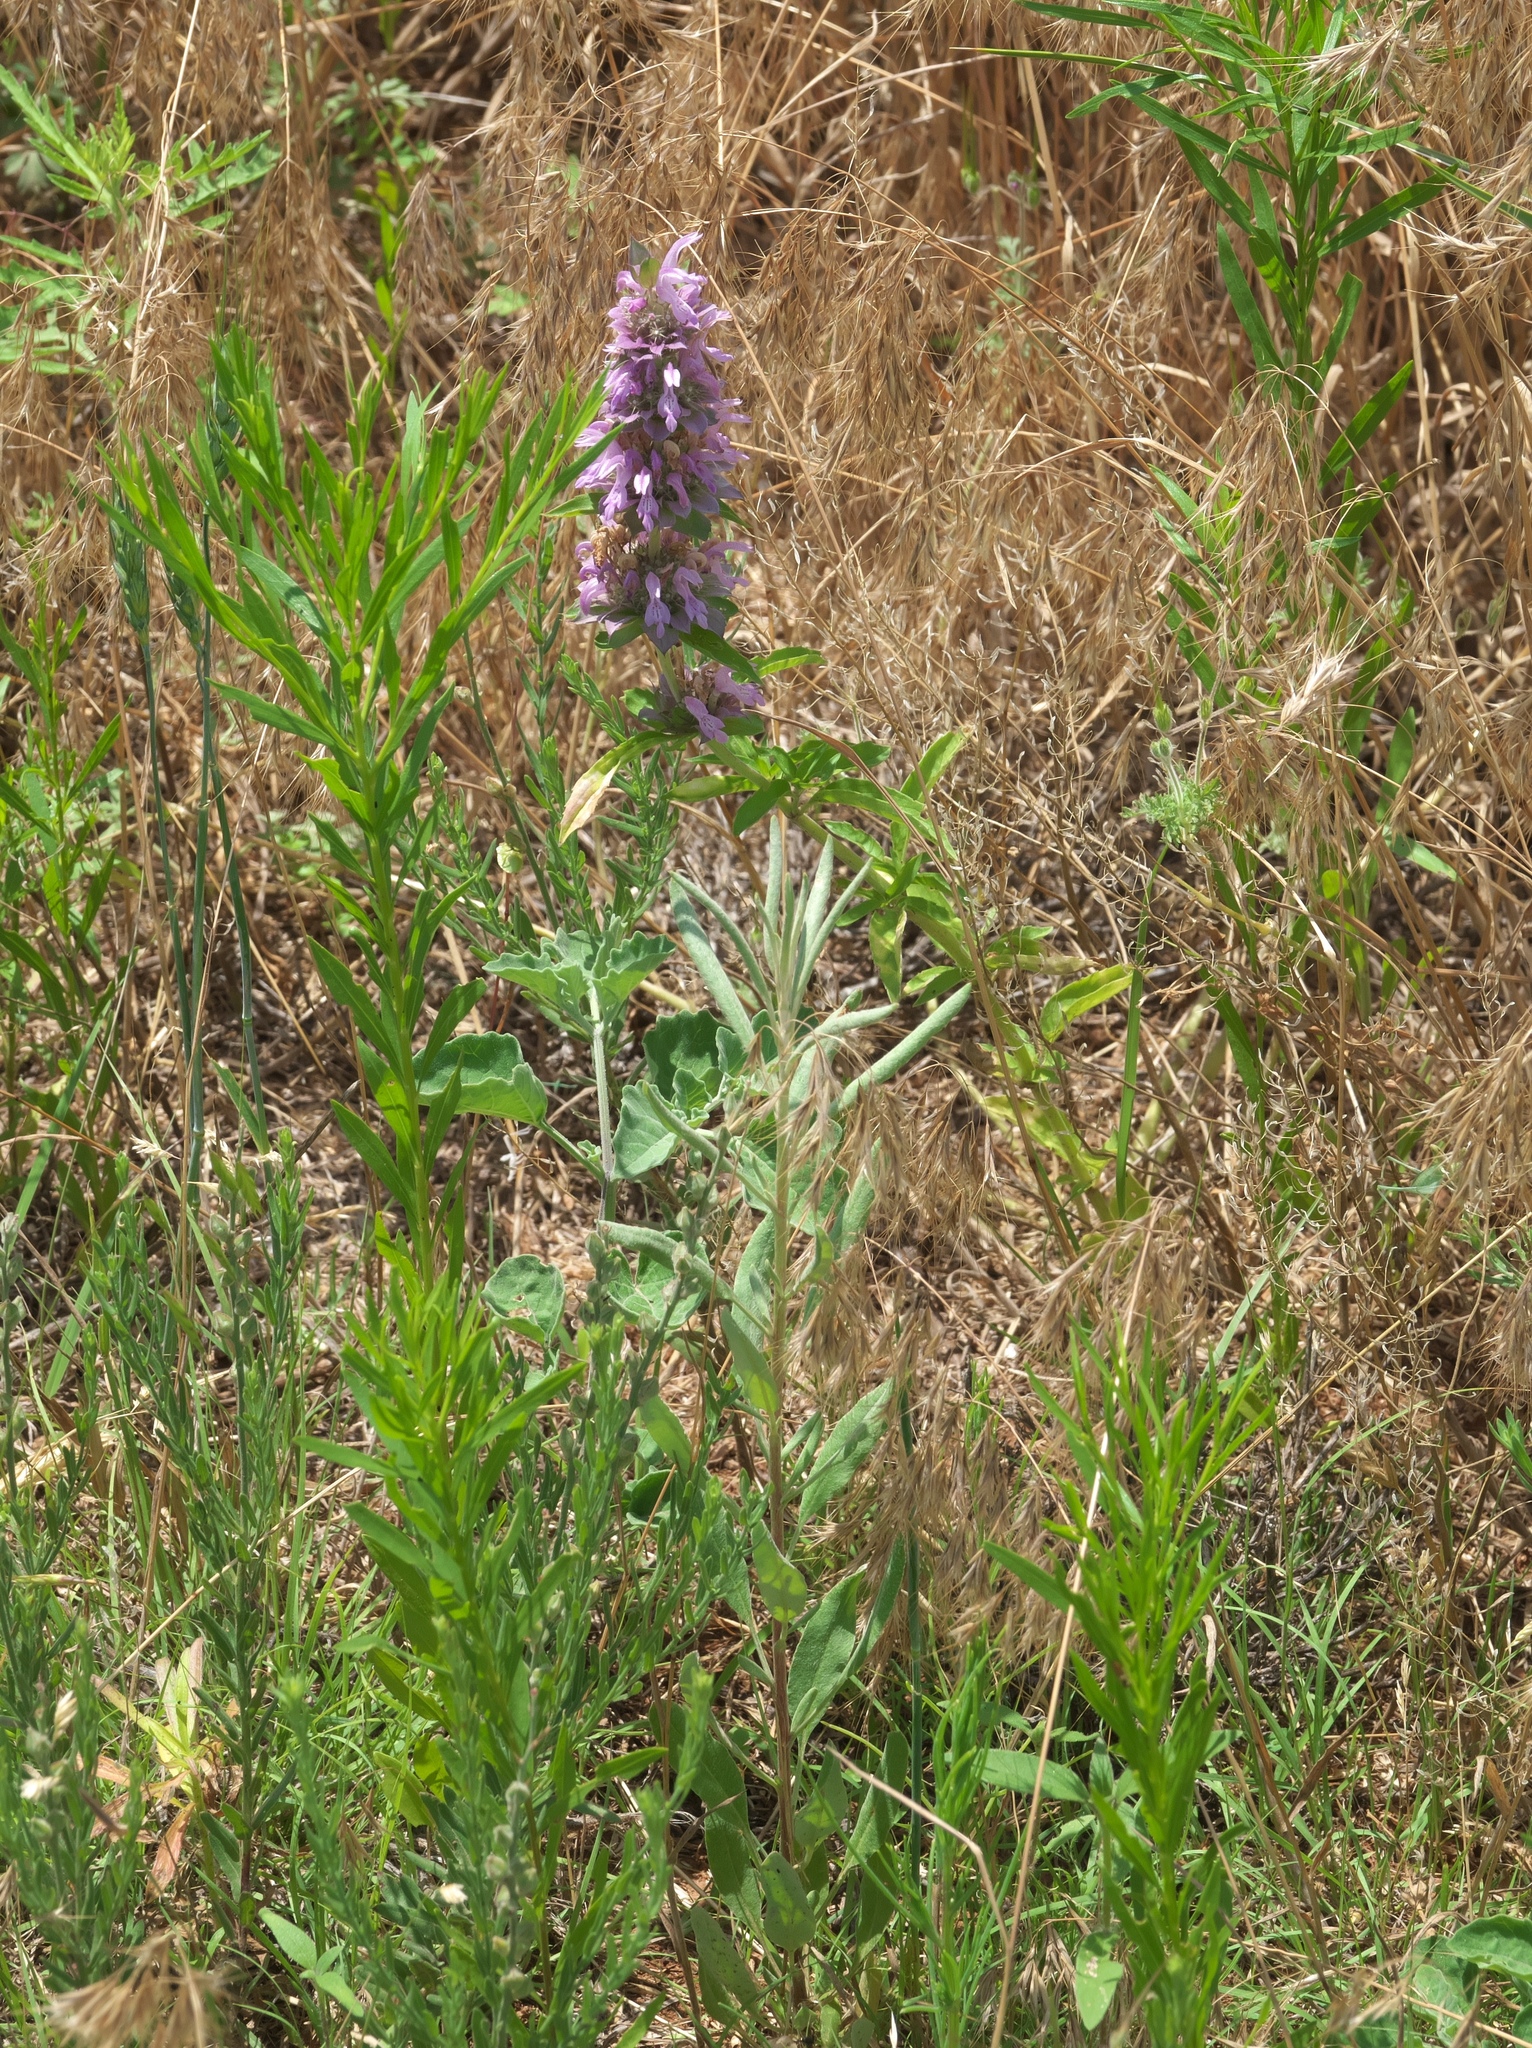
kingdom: Plantae
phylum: Tracheophyta
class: Magnoliopsida
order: Lamiales
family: Lamiaceae
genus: Monarda
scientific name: Monarda citriodora
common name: Lemon beebalm
